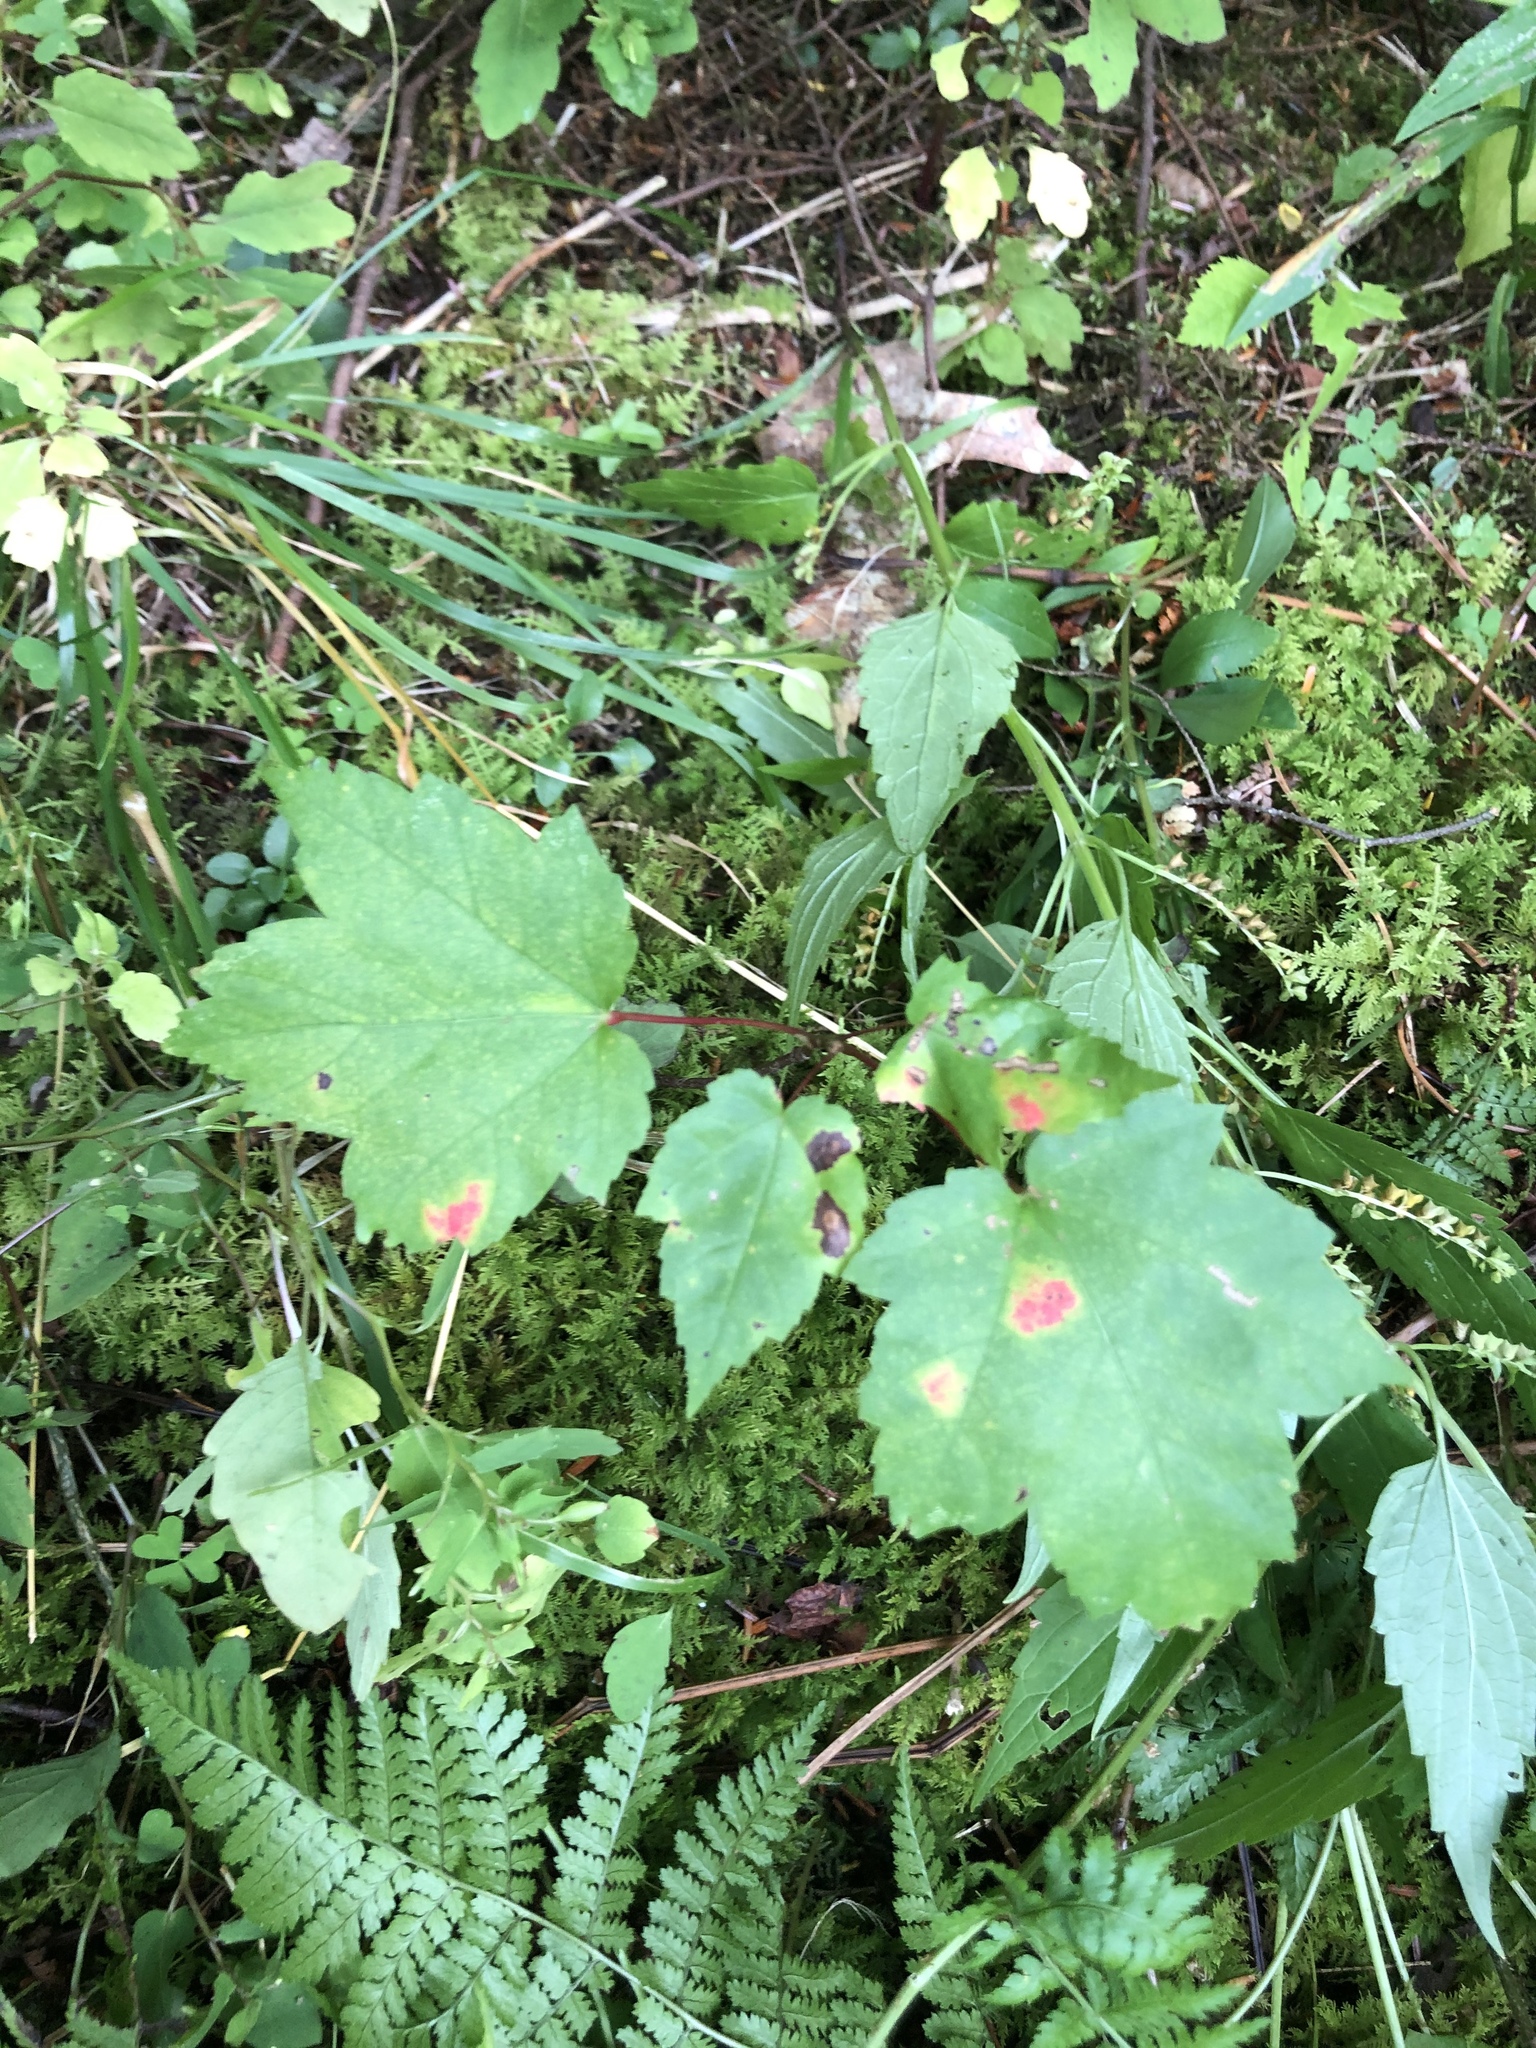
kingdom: Plantae
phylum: Tracheophyta
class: Magnoliopsida
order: Sapindales
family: Sapindaceae
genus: Acer
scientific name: Acer rubrum
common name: Red maple
